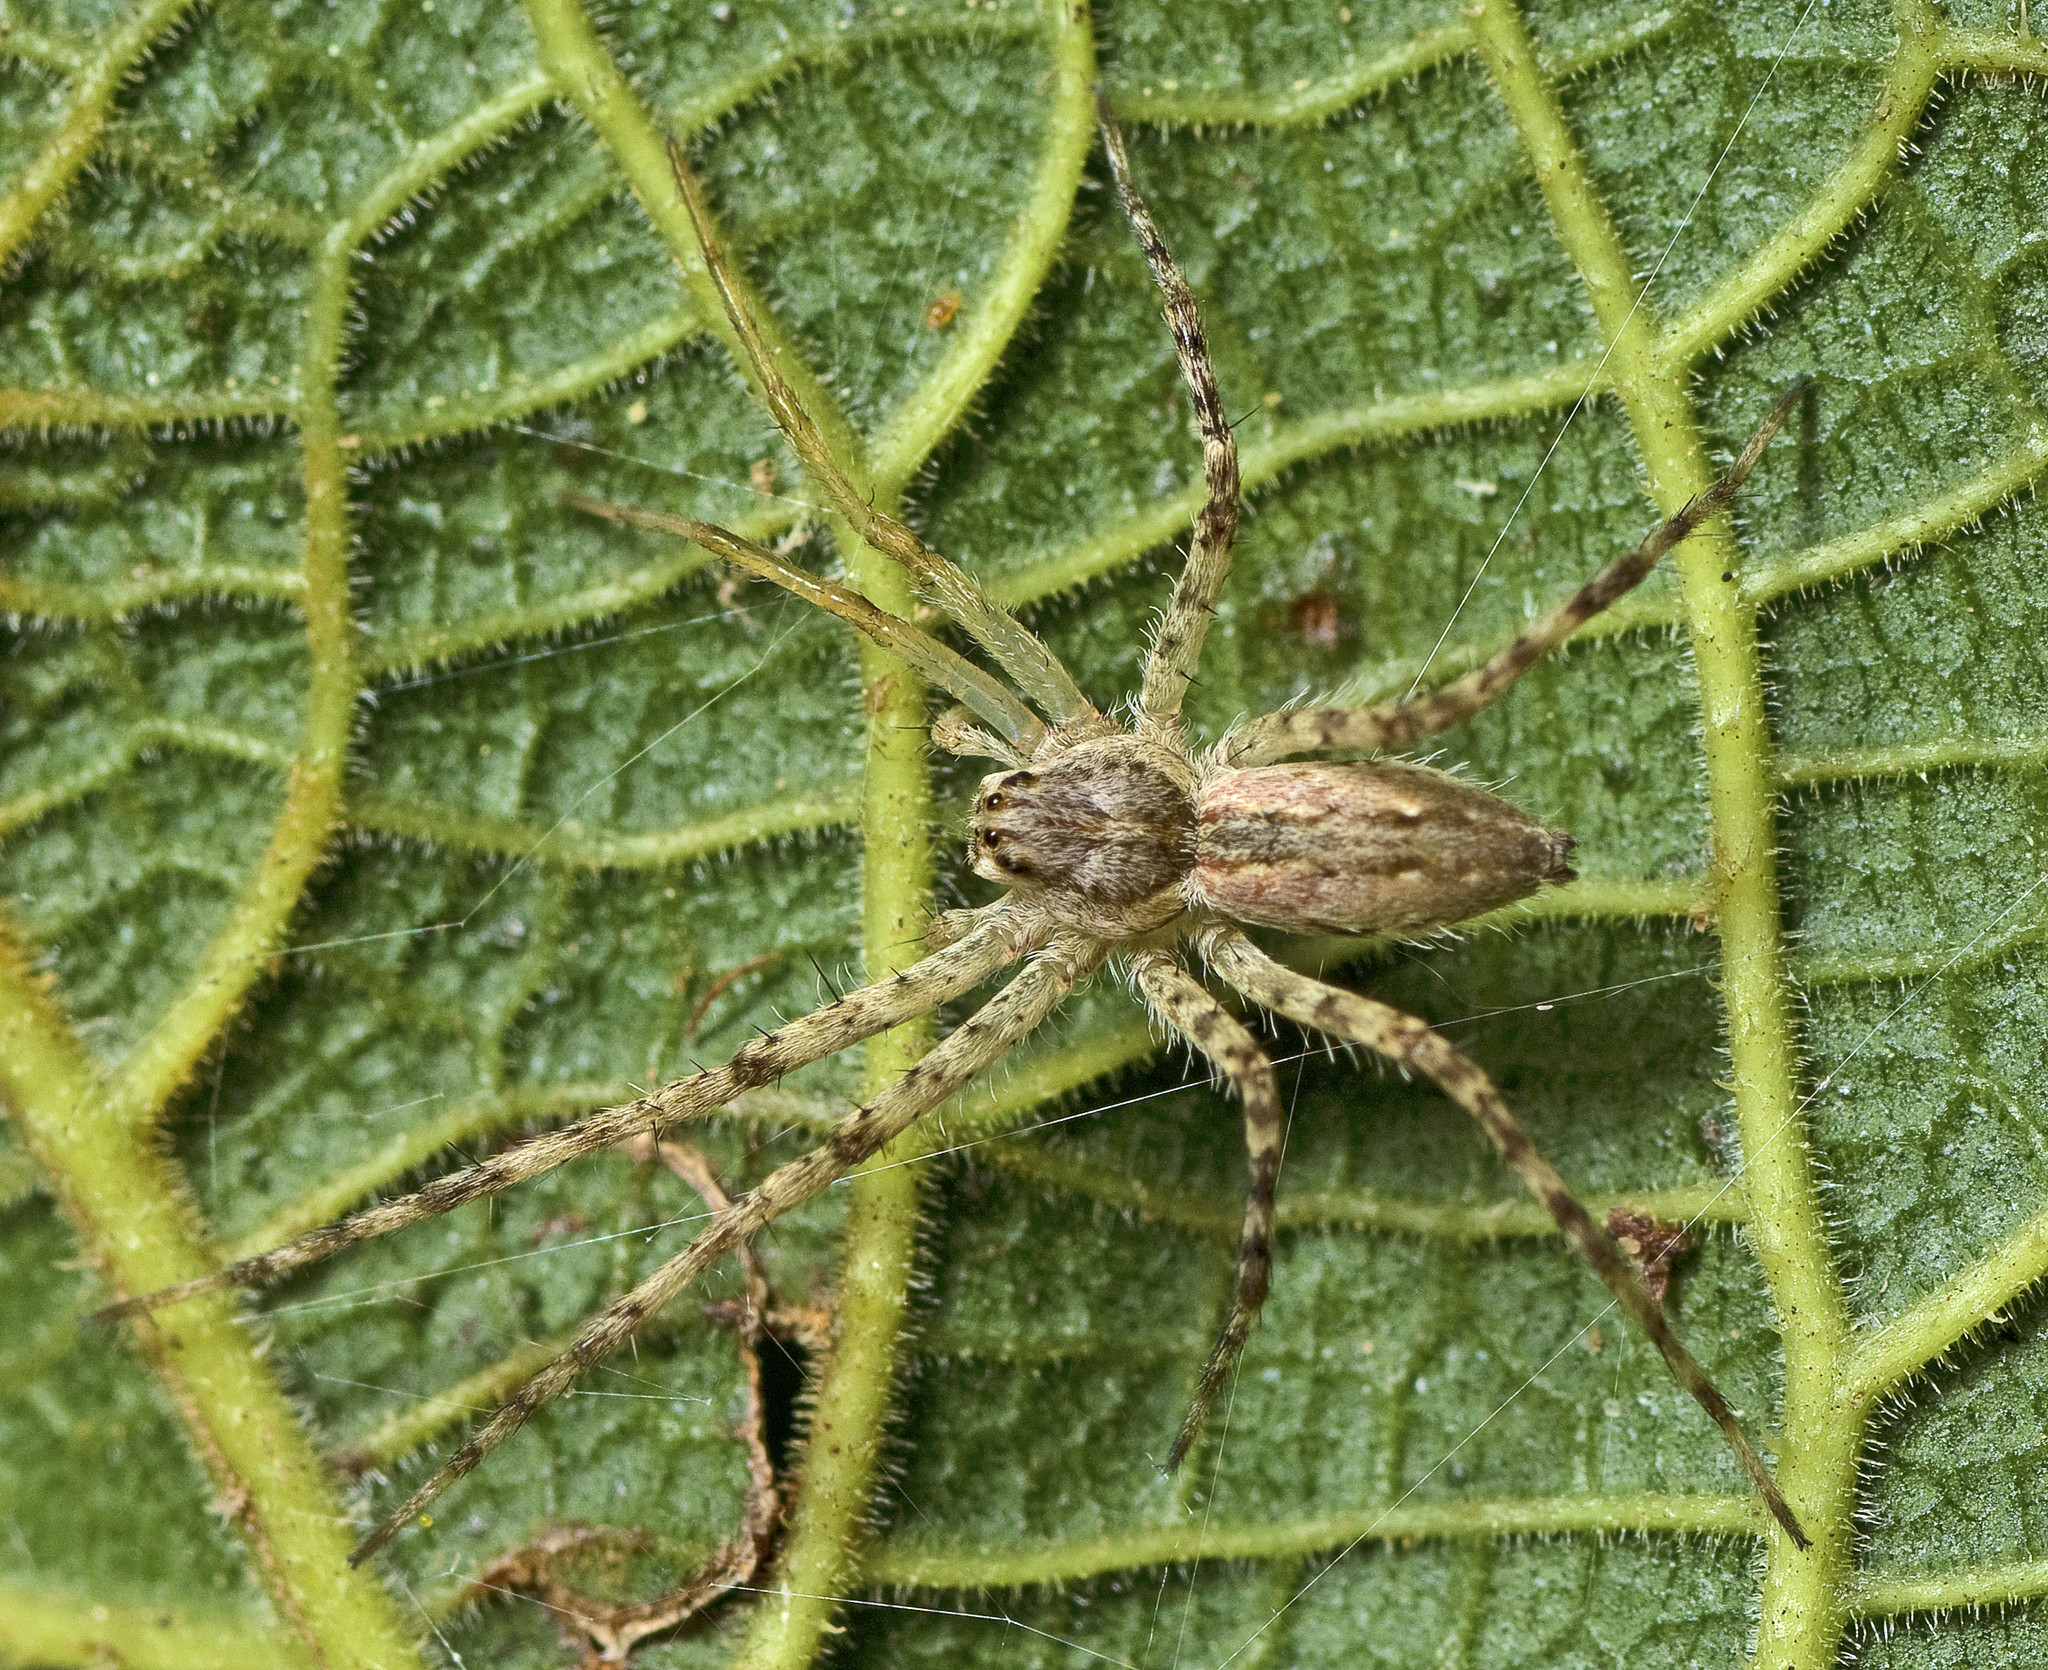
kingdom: Animalia
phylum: Arthropoda
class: Arachnida
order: Araneae
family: Pisauridae
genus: Megadolomedes
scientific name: Megadolomedes trux
